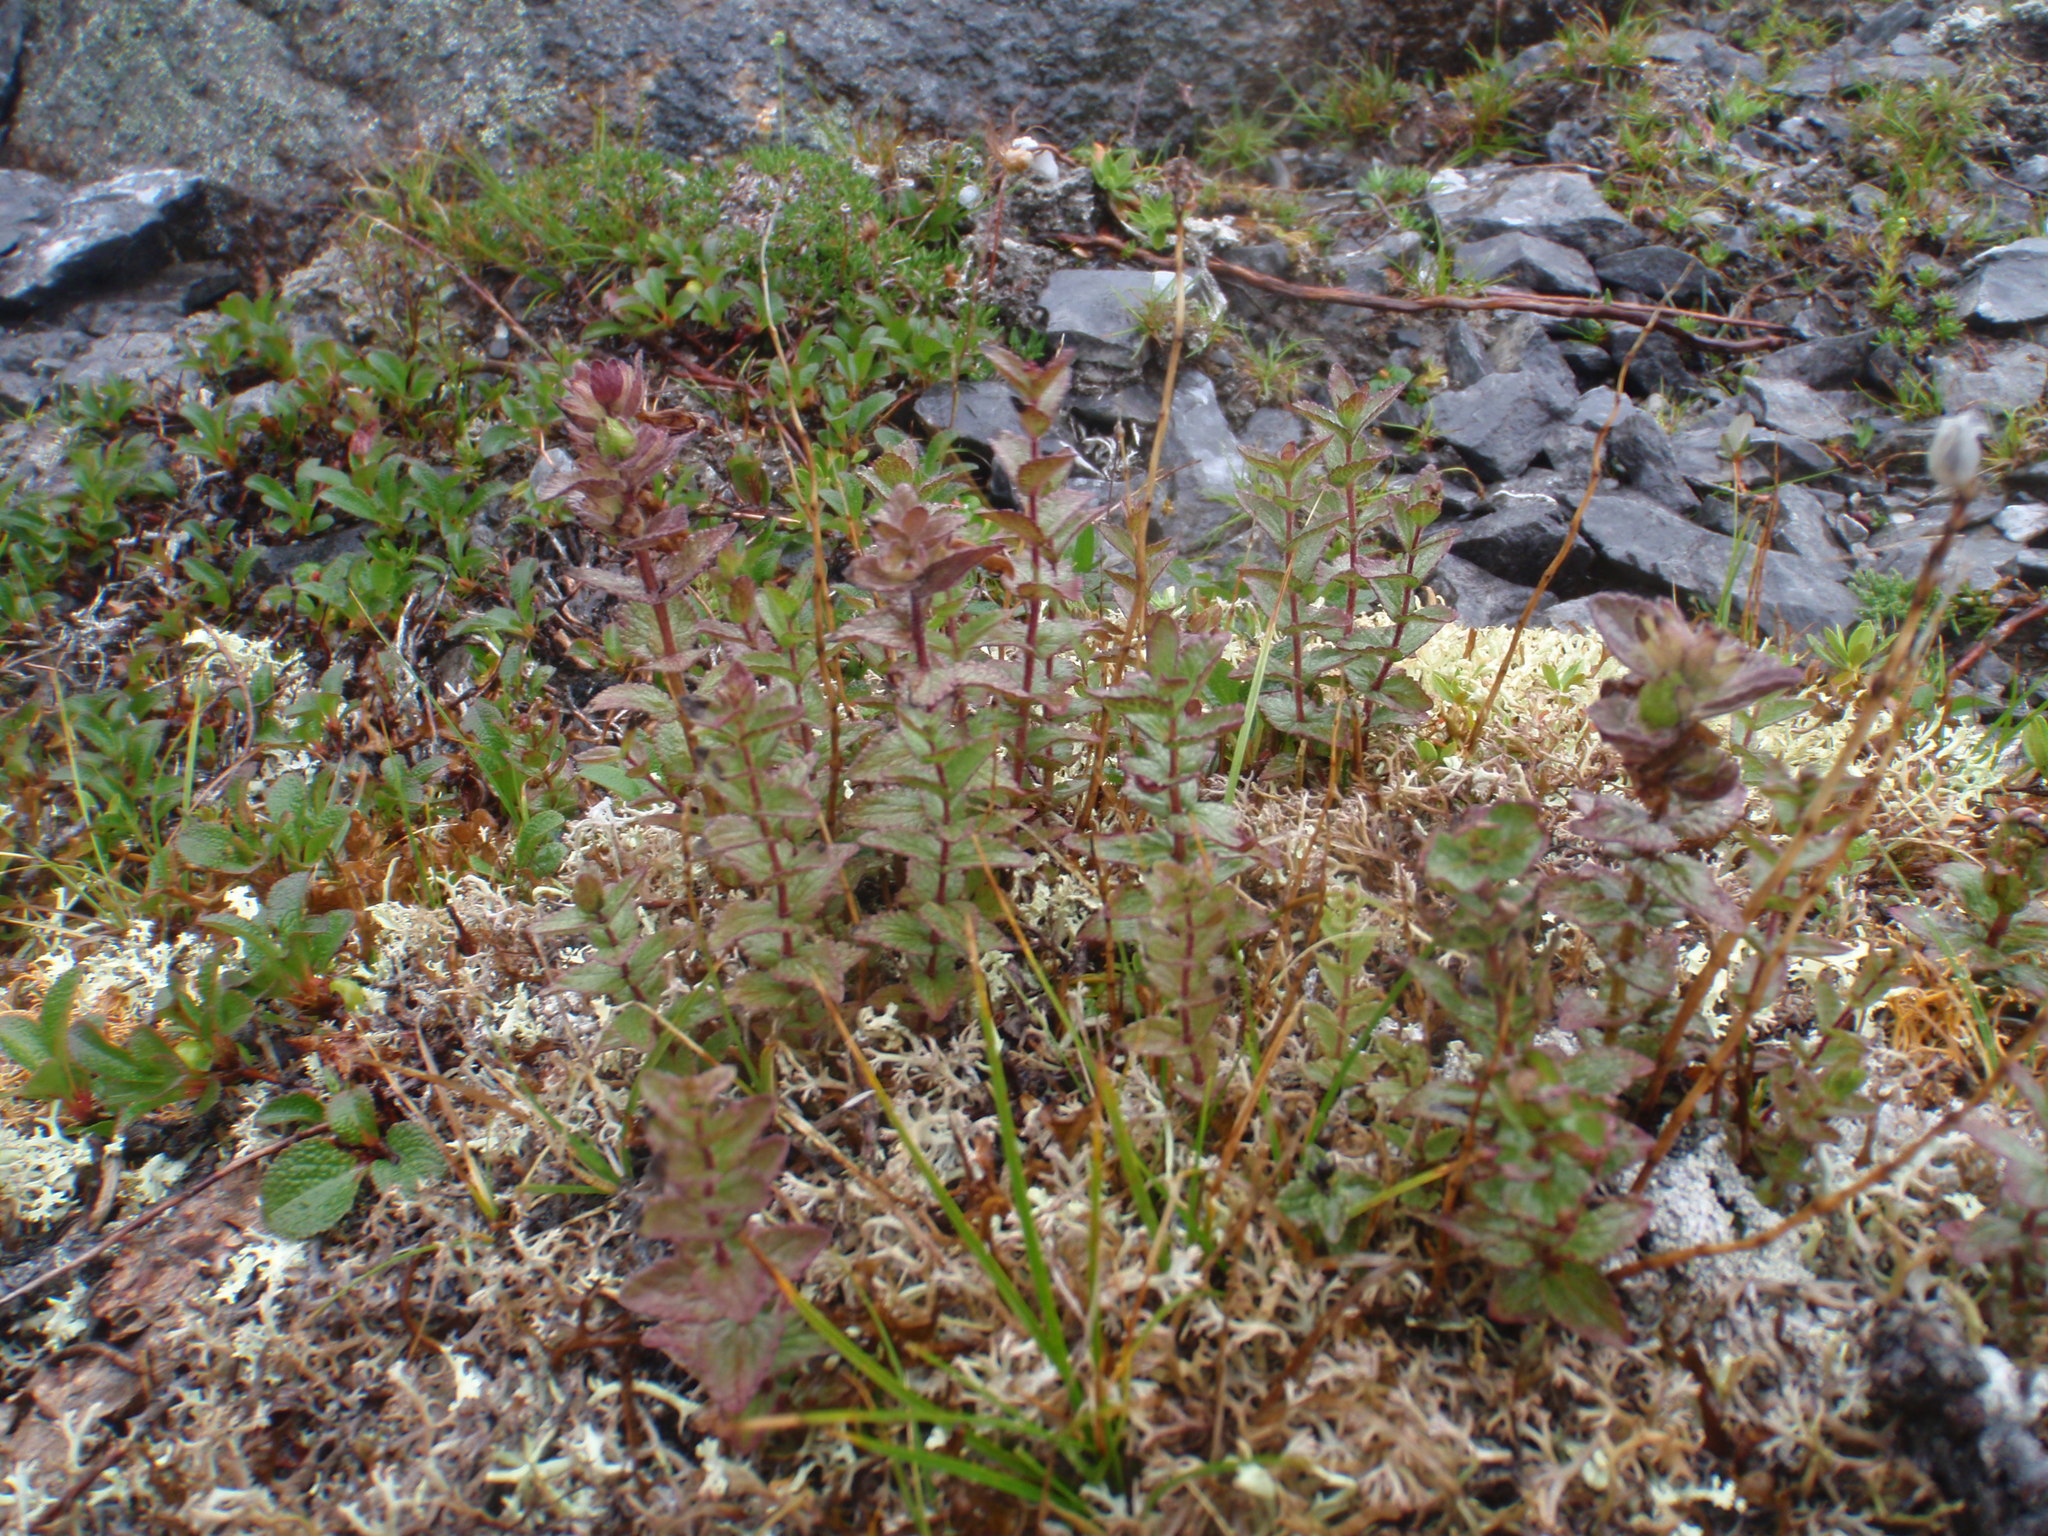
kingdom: Plantae
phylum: Tracheophyta
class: Magnoliopsida
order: Lamiales
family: Orobanchaceae
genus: Bartsia
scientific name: Bartsia alpina
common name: Alpine bartsia
